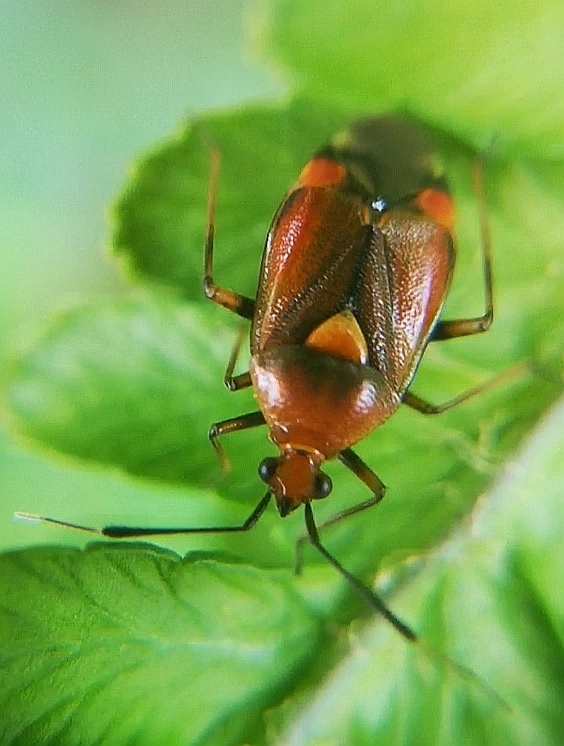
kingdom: Animalia
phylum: Arthropoda
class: Insecta
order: Hemiptera
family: Miridae
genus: Deraeocoris
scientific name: Deraeocoris ruber
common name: Plant bug
